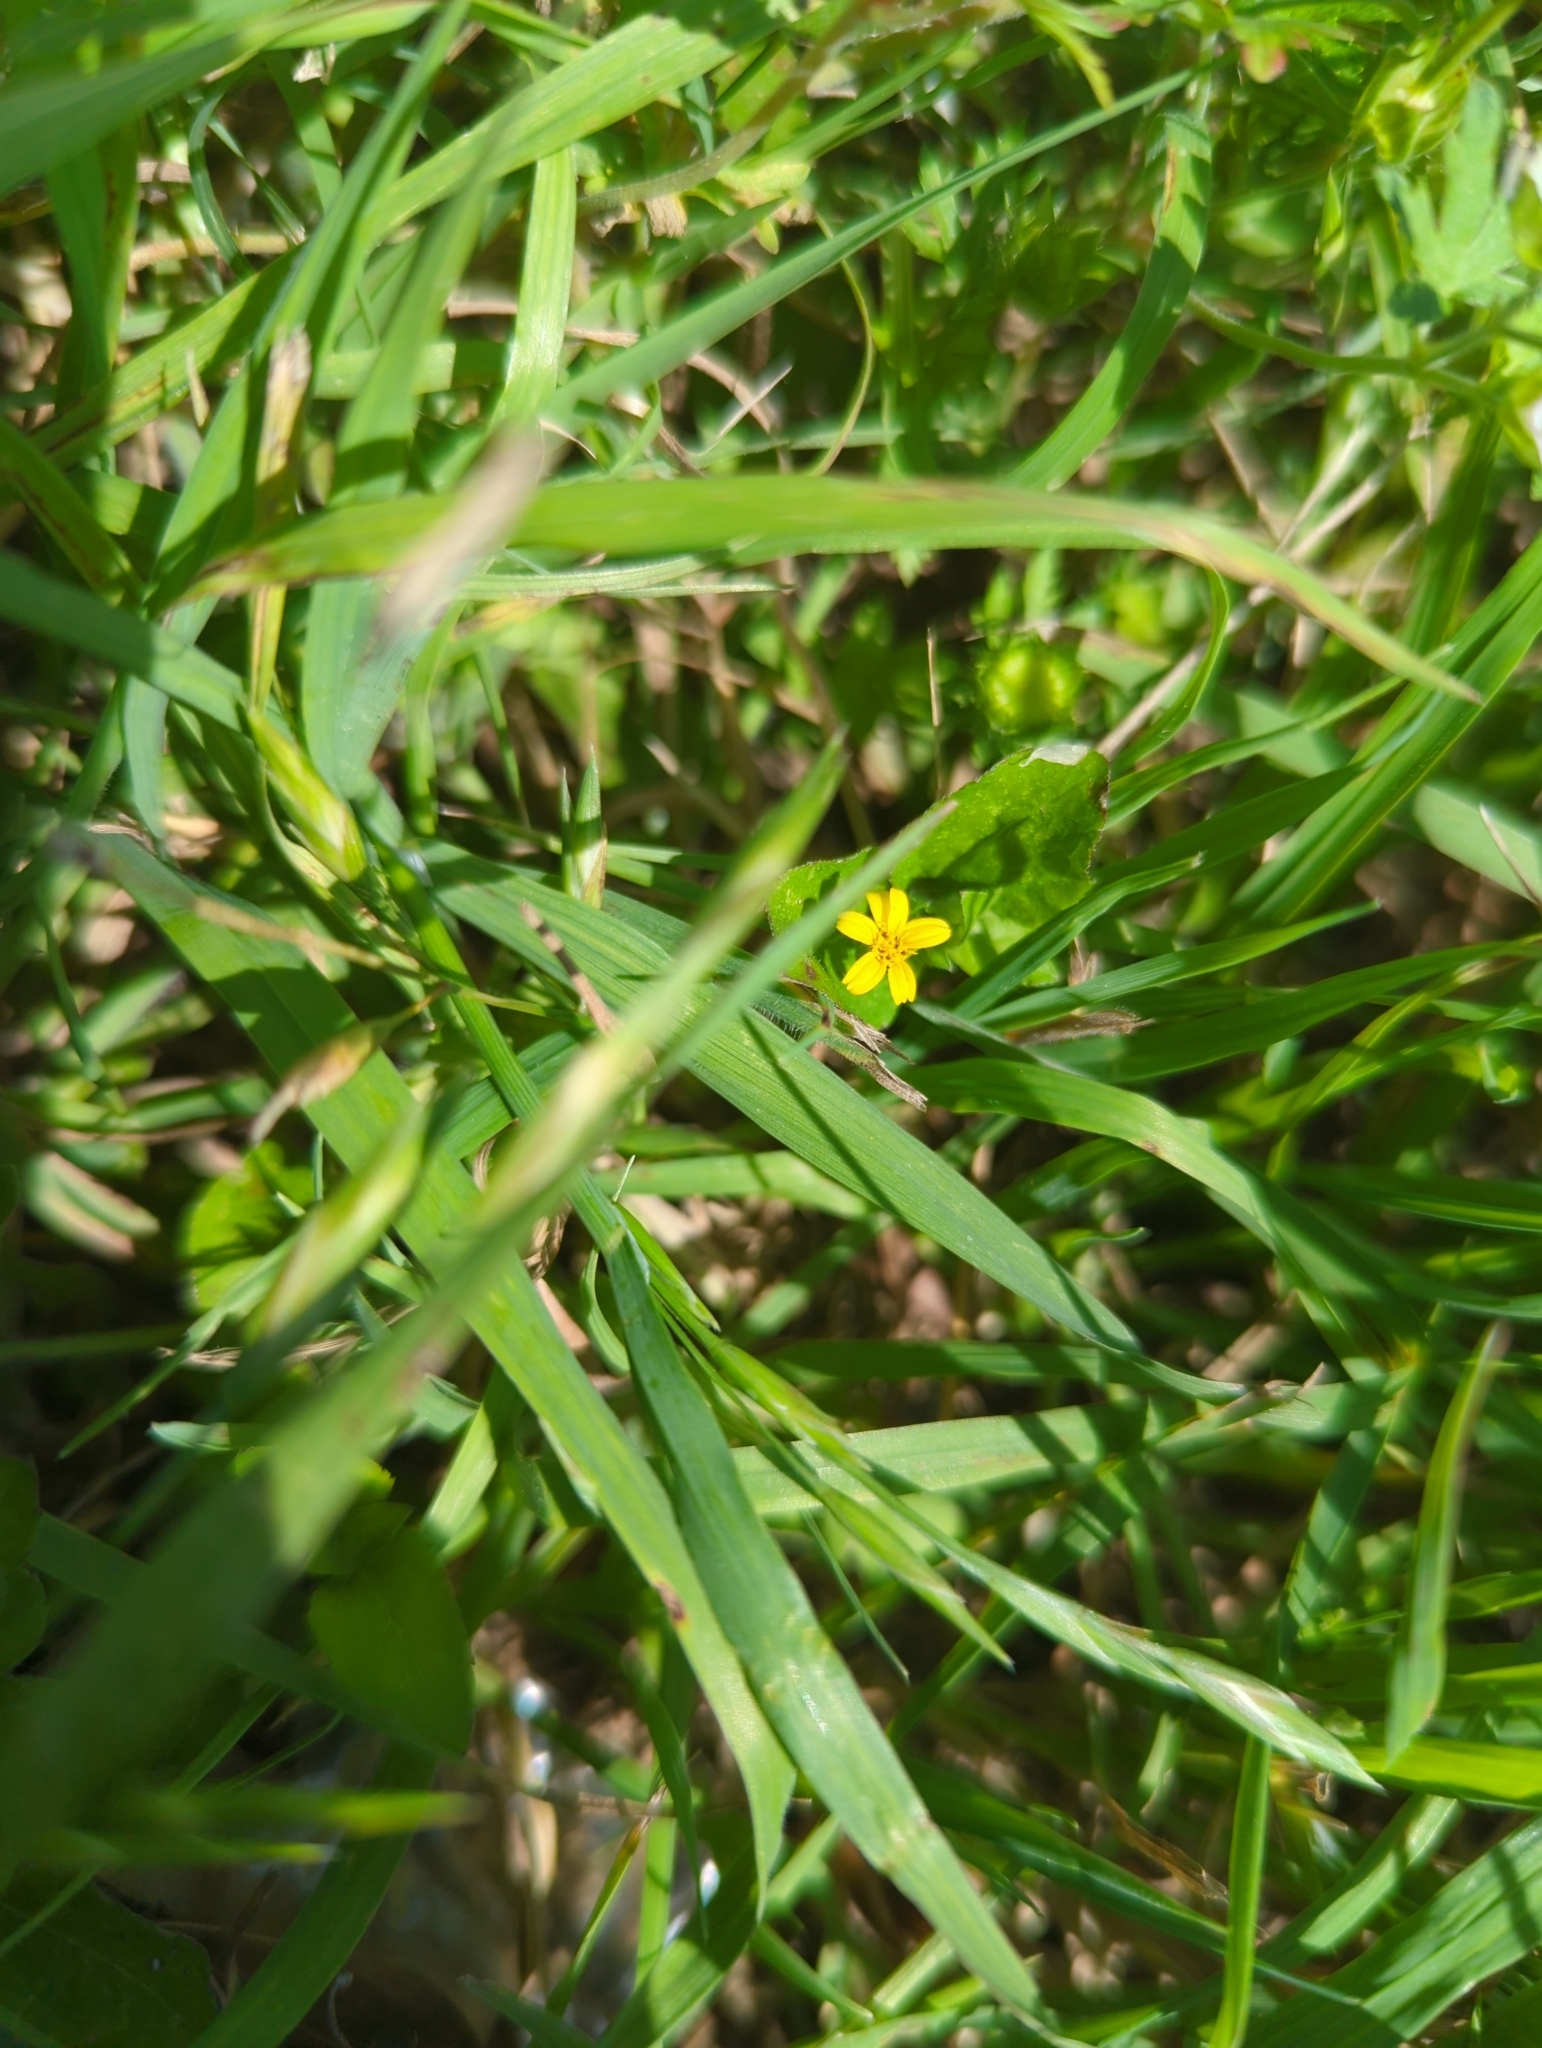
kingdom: Plantae
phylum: Tracheophyta
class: Magnoliopsida
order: Asterales
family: Asteraceae
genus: Calyptocarpus
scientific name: Calyptocarpus vialis
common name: Straggler daisy
